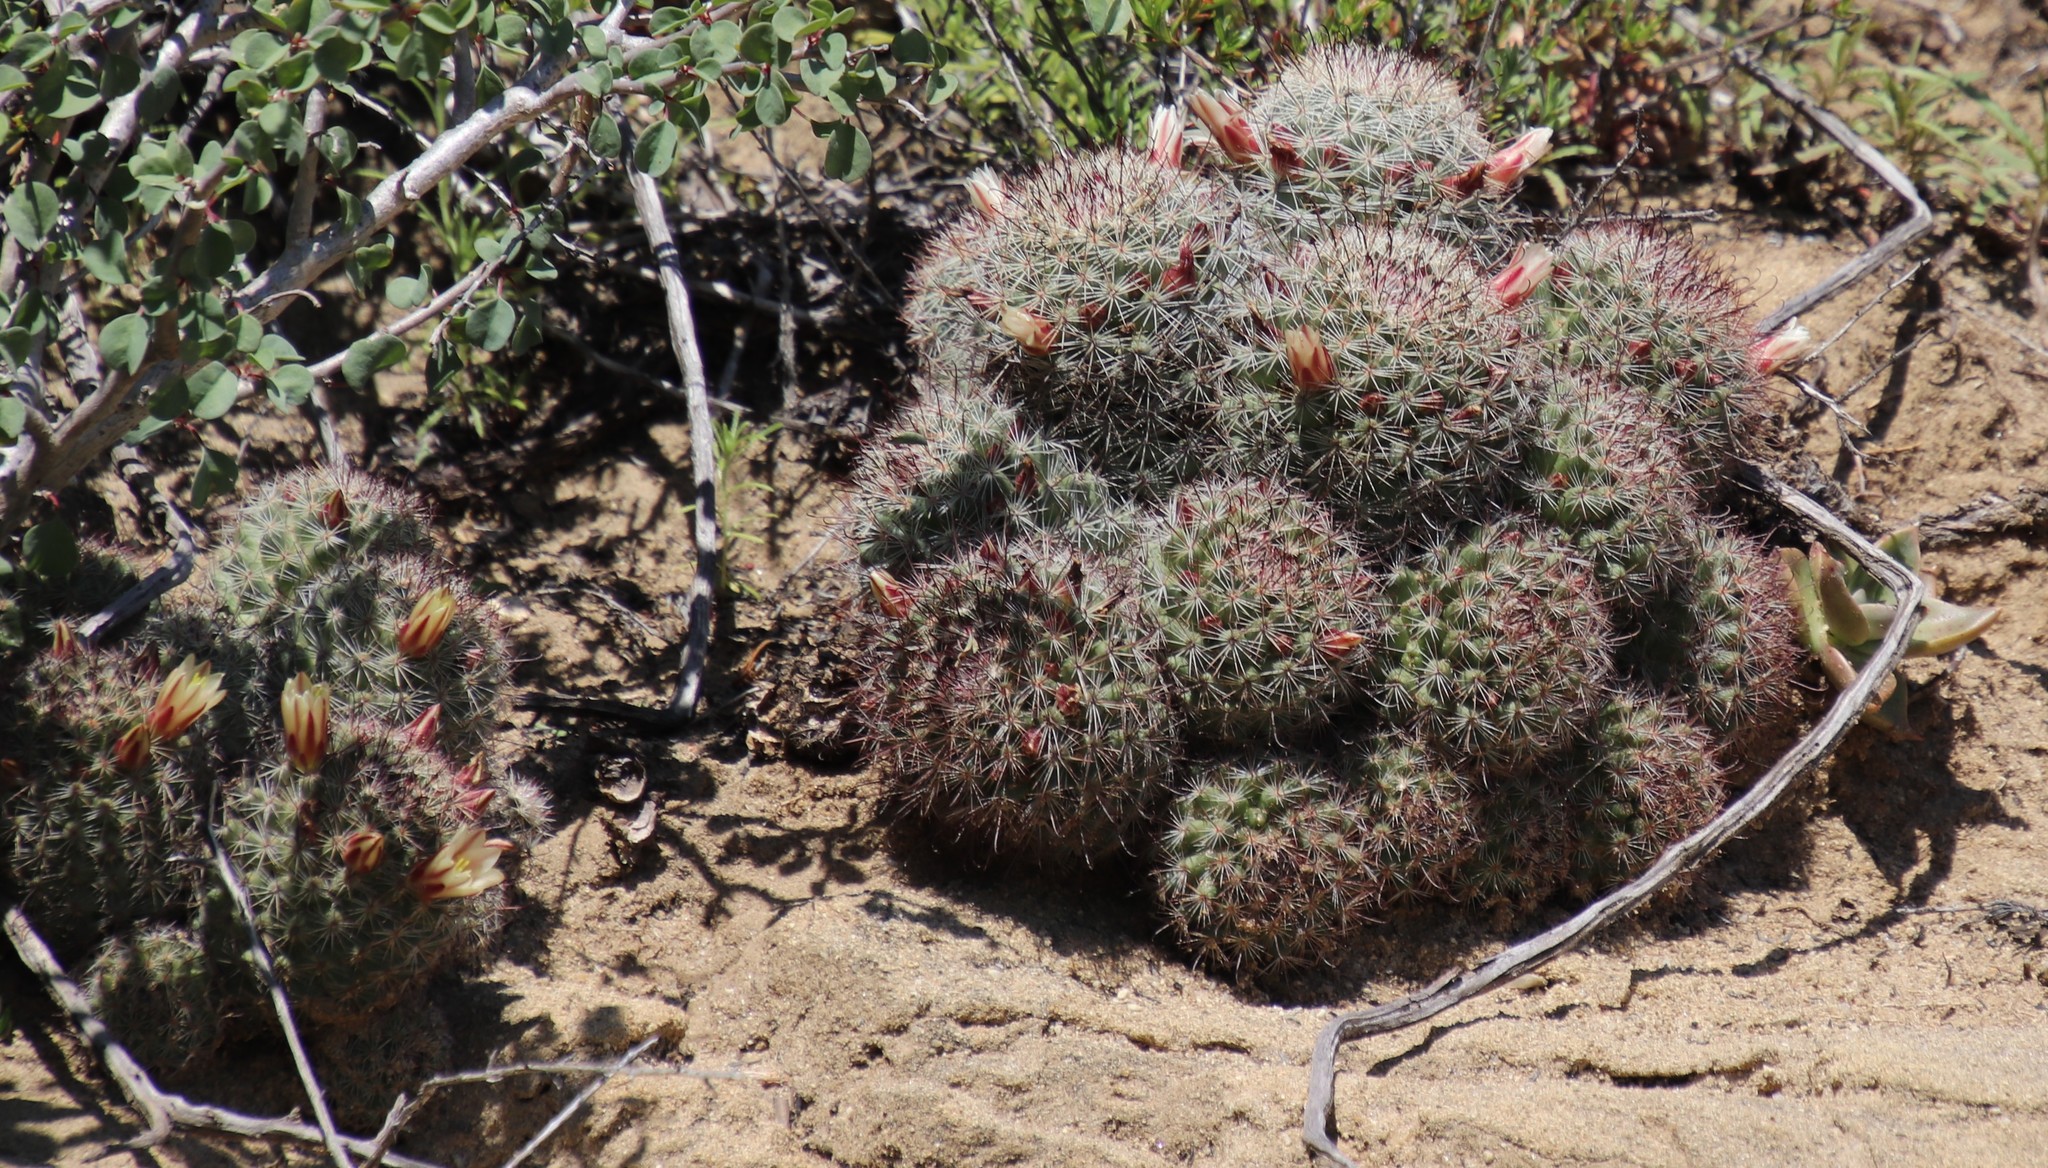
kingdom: Plantae
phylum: Tracheophyta
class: Magnoliopsida
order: Caryophyllales
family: Cactaceae
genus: Cochemiea
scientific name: Cochemiea dioica
